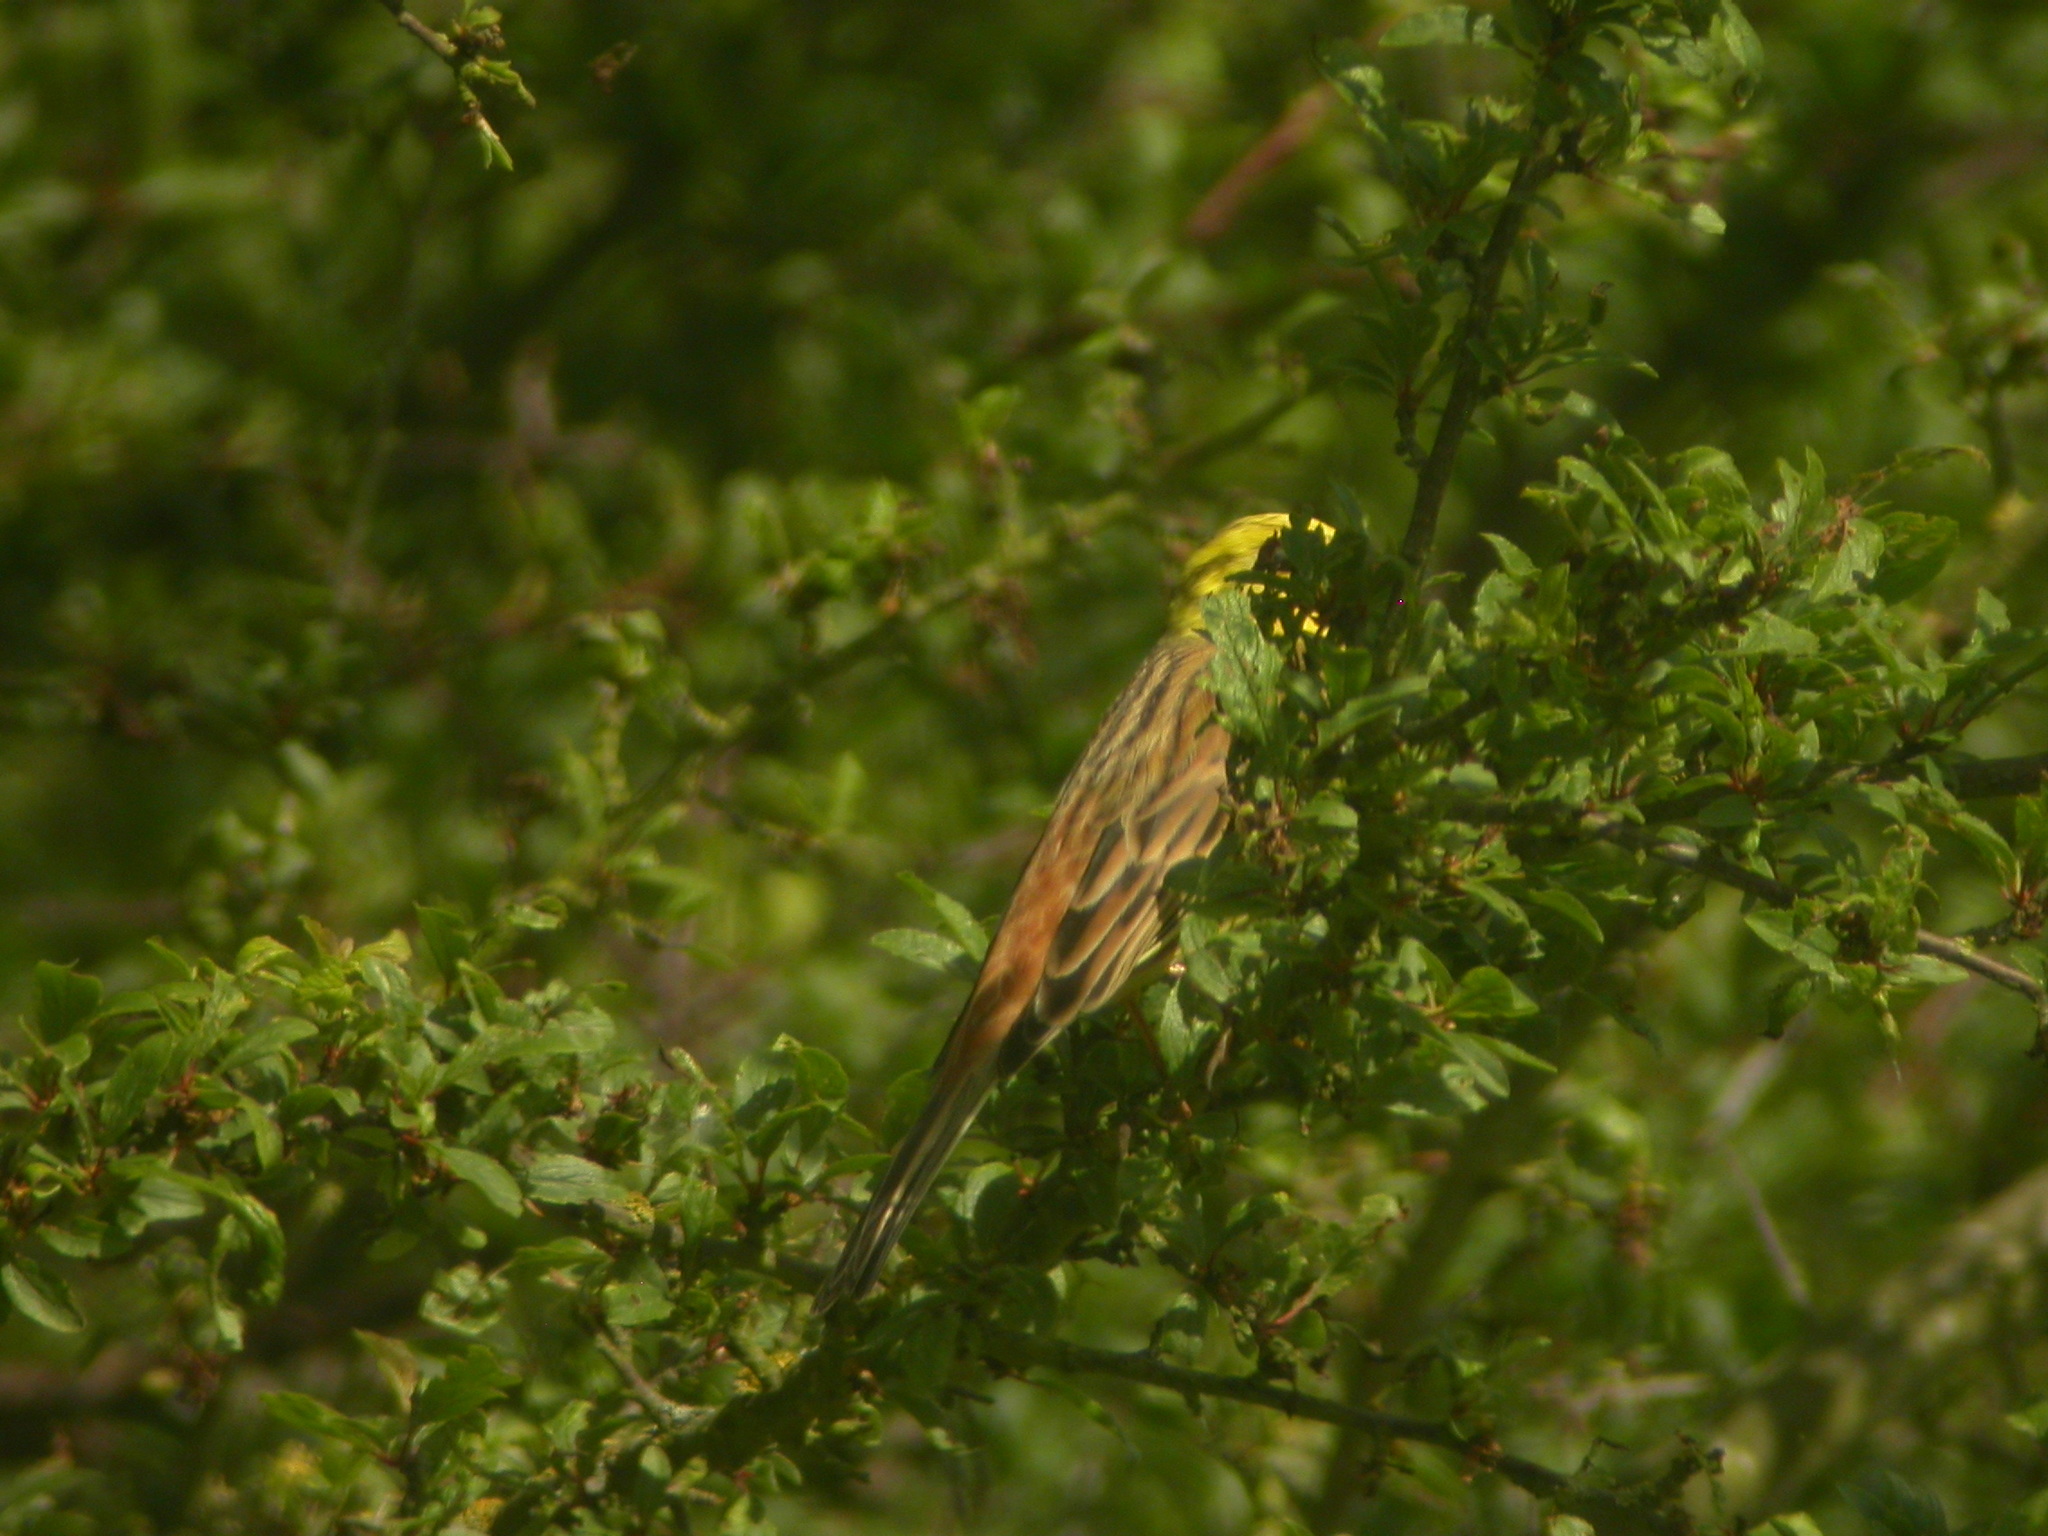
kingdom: Animalia
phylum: Chordata
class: Aves
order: Passeriformes
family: Emberizidae
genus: Emberiza
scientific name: Emberiza citrinella
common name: Yellowhammer
